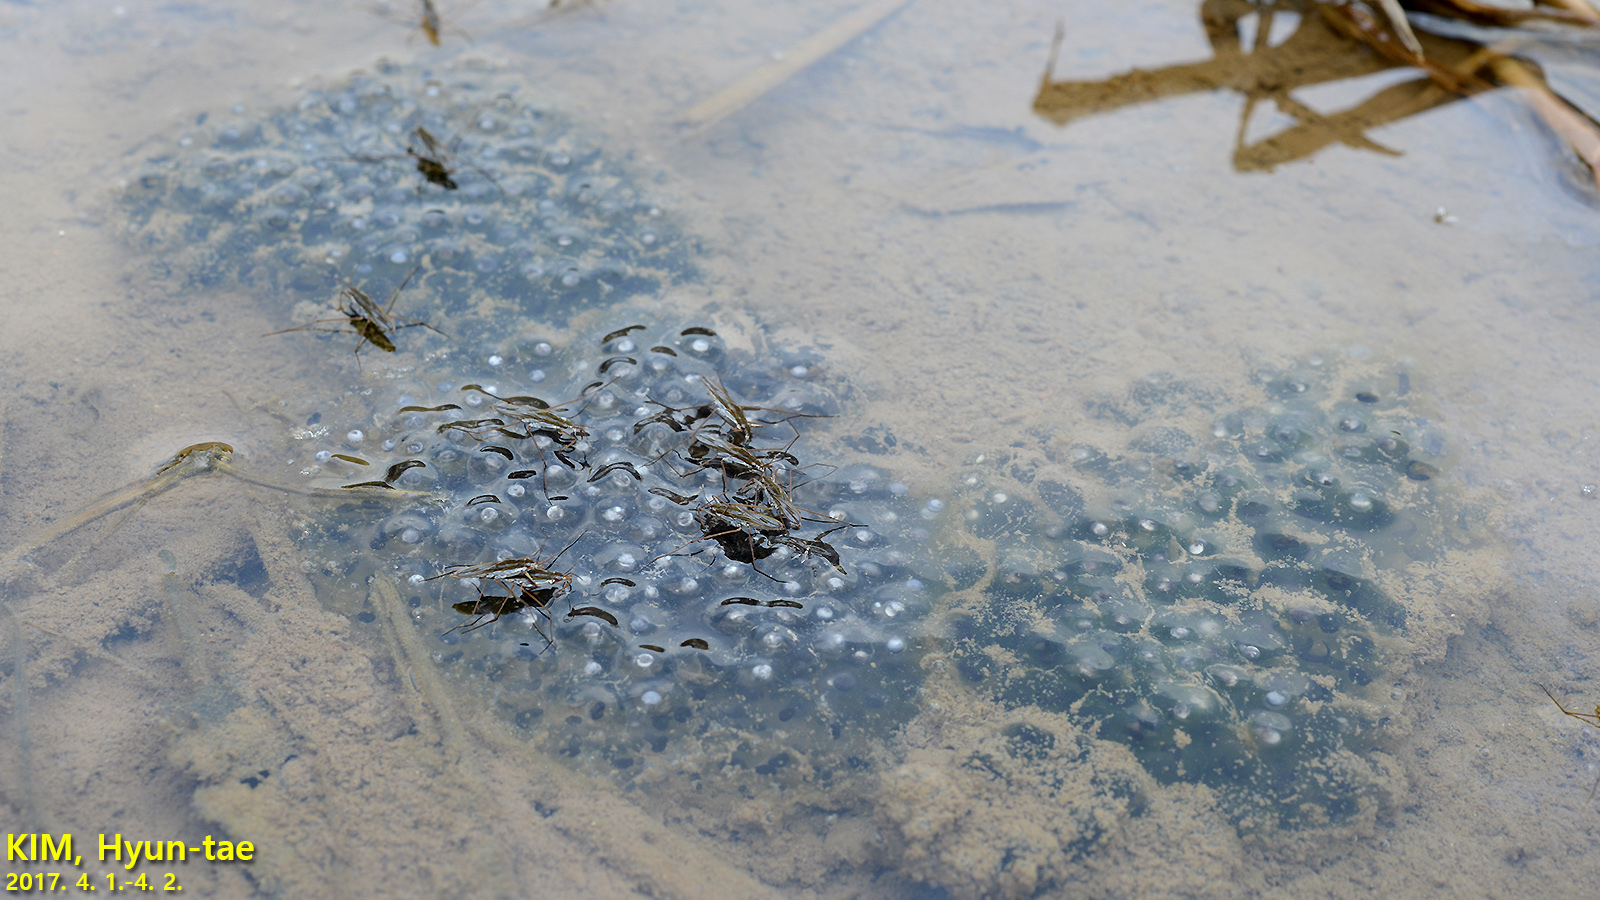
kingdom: Animalia
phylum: Chordata
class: Amphibia
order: Anura
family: Ranidae
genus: Rana
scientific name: Rana coreana
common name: Korean brown frog
